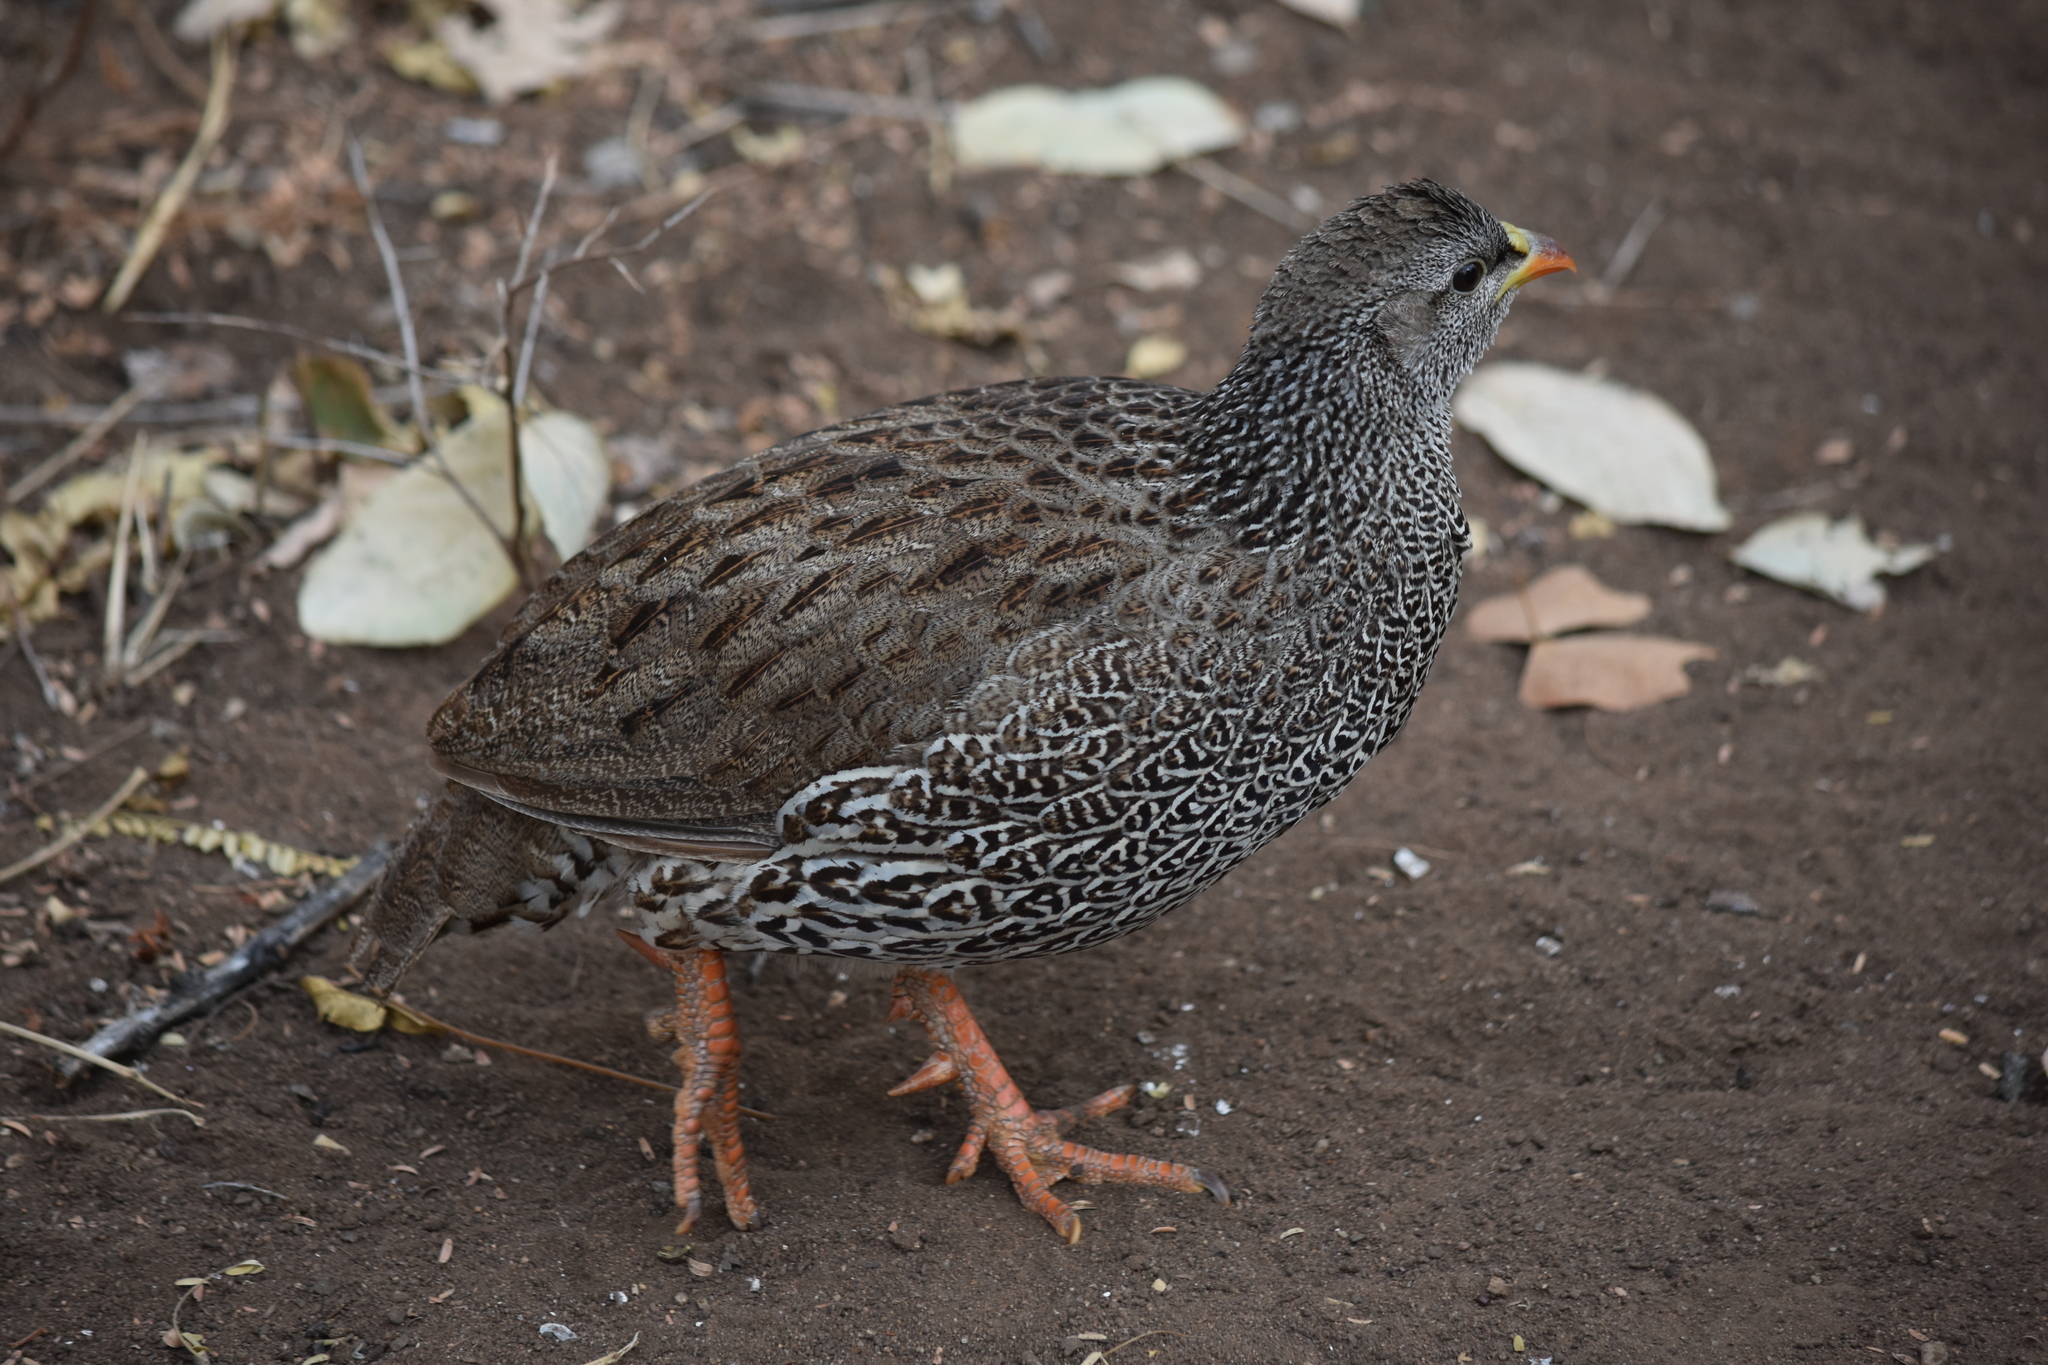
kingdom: Animalia
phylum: Chordata
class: Aves
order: Galliformes
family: Phasianidae
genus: Pternistis
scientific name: Pternistis natalensis
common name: Natal spurfowl
